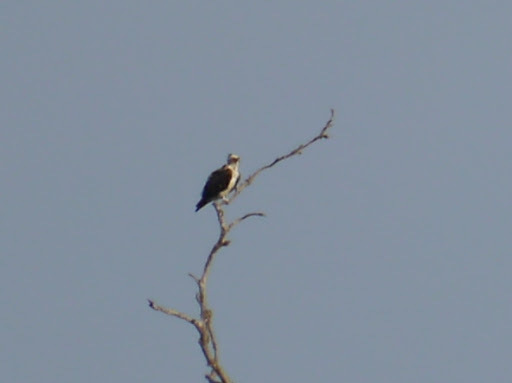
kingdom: Animalia
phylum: Chordata
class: Aves
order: Accipitriformes
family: Pandionidae
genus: Pandion
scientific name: Pandion haliaetus
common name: Osprey
